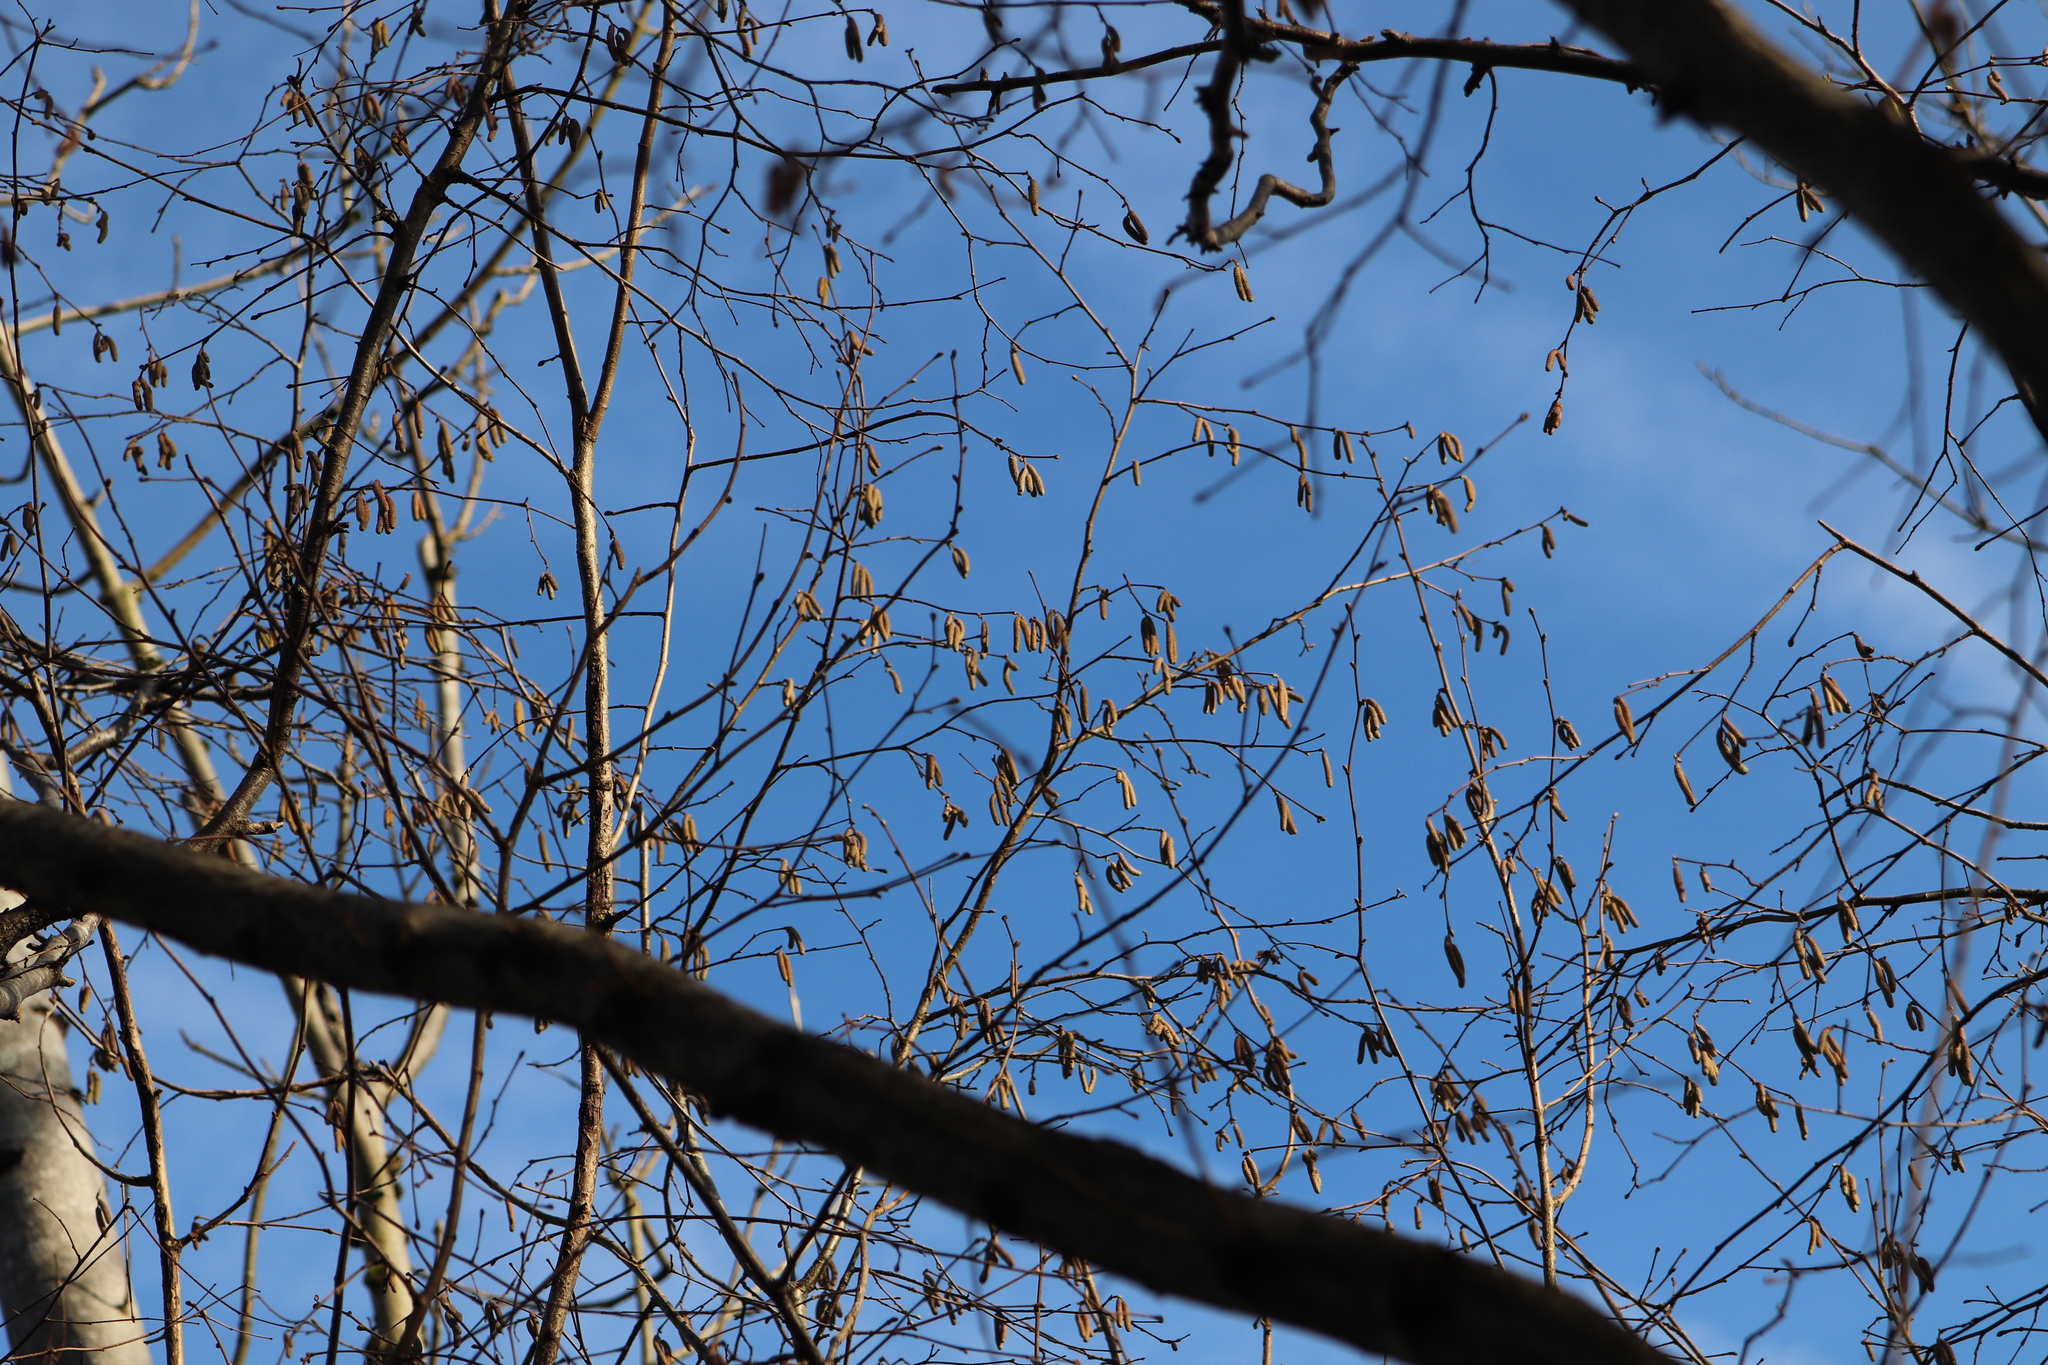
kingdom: Plantae
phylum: Tracheophyta
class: Magnoliopsida
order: Fagales
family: Betulaceae
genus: Corylus
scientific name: Corylus avellana
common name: European hazel
